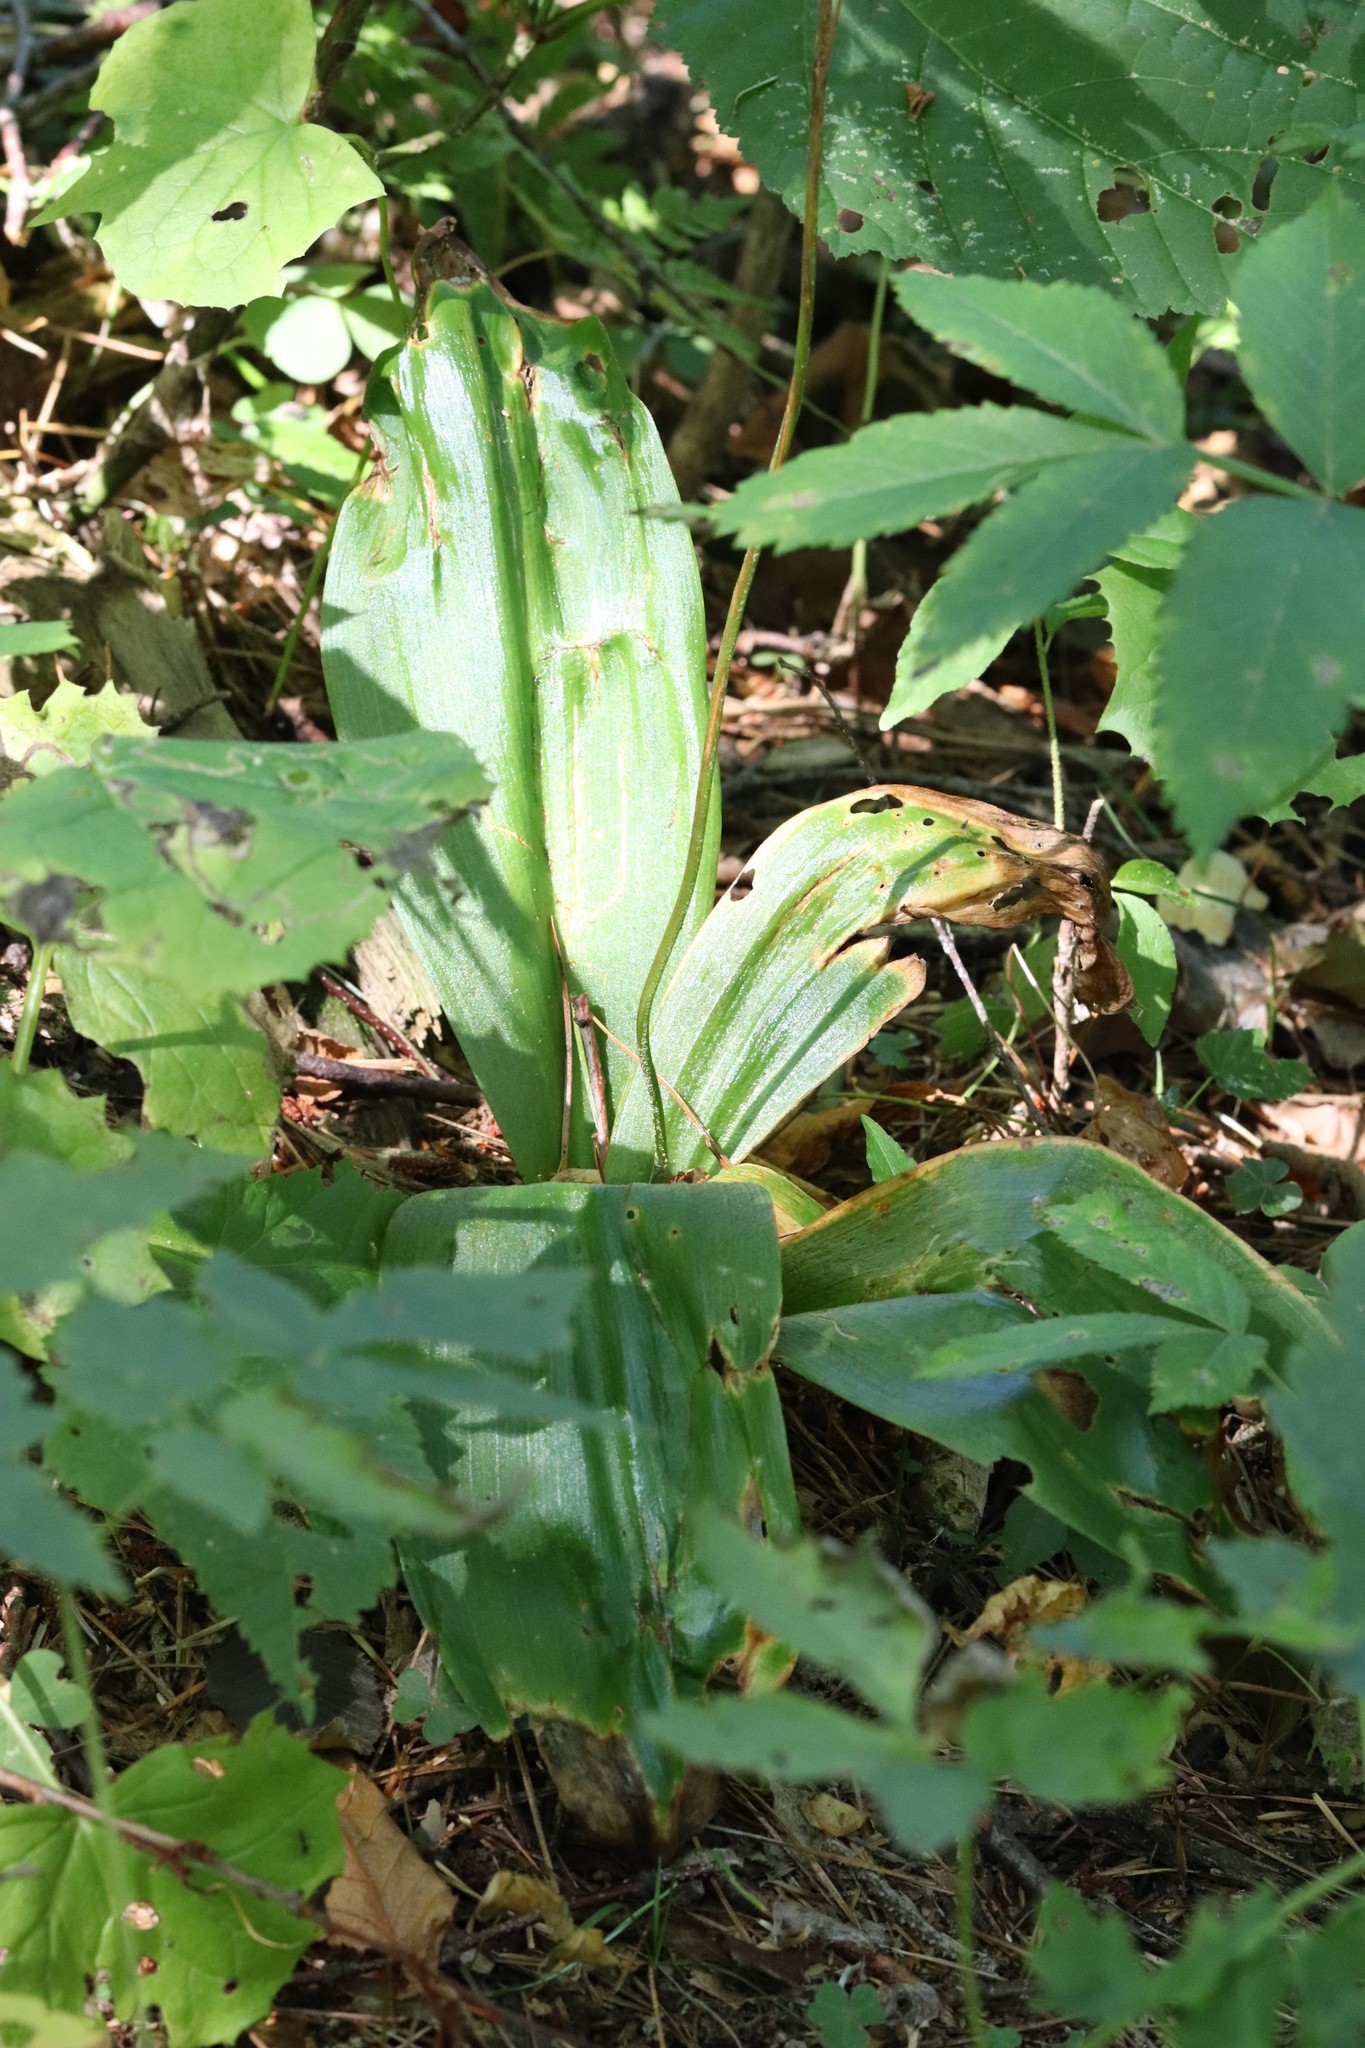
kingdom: Plantae
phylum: Tracheophyta
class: Liliopsida
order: Liliales
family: Liliaceae
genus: Clintonia
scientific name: Clintonia udensis
